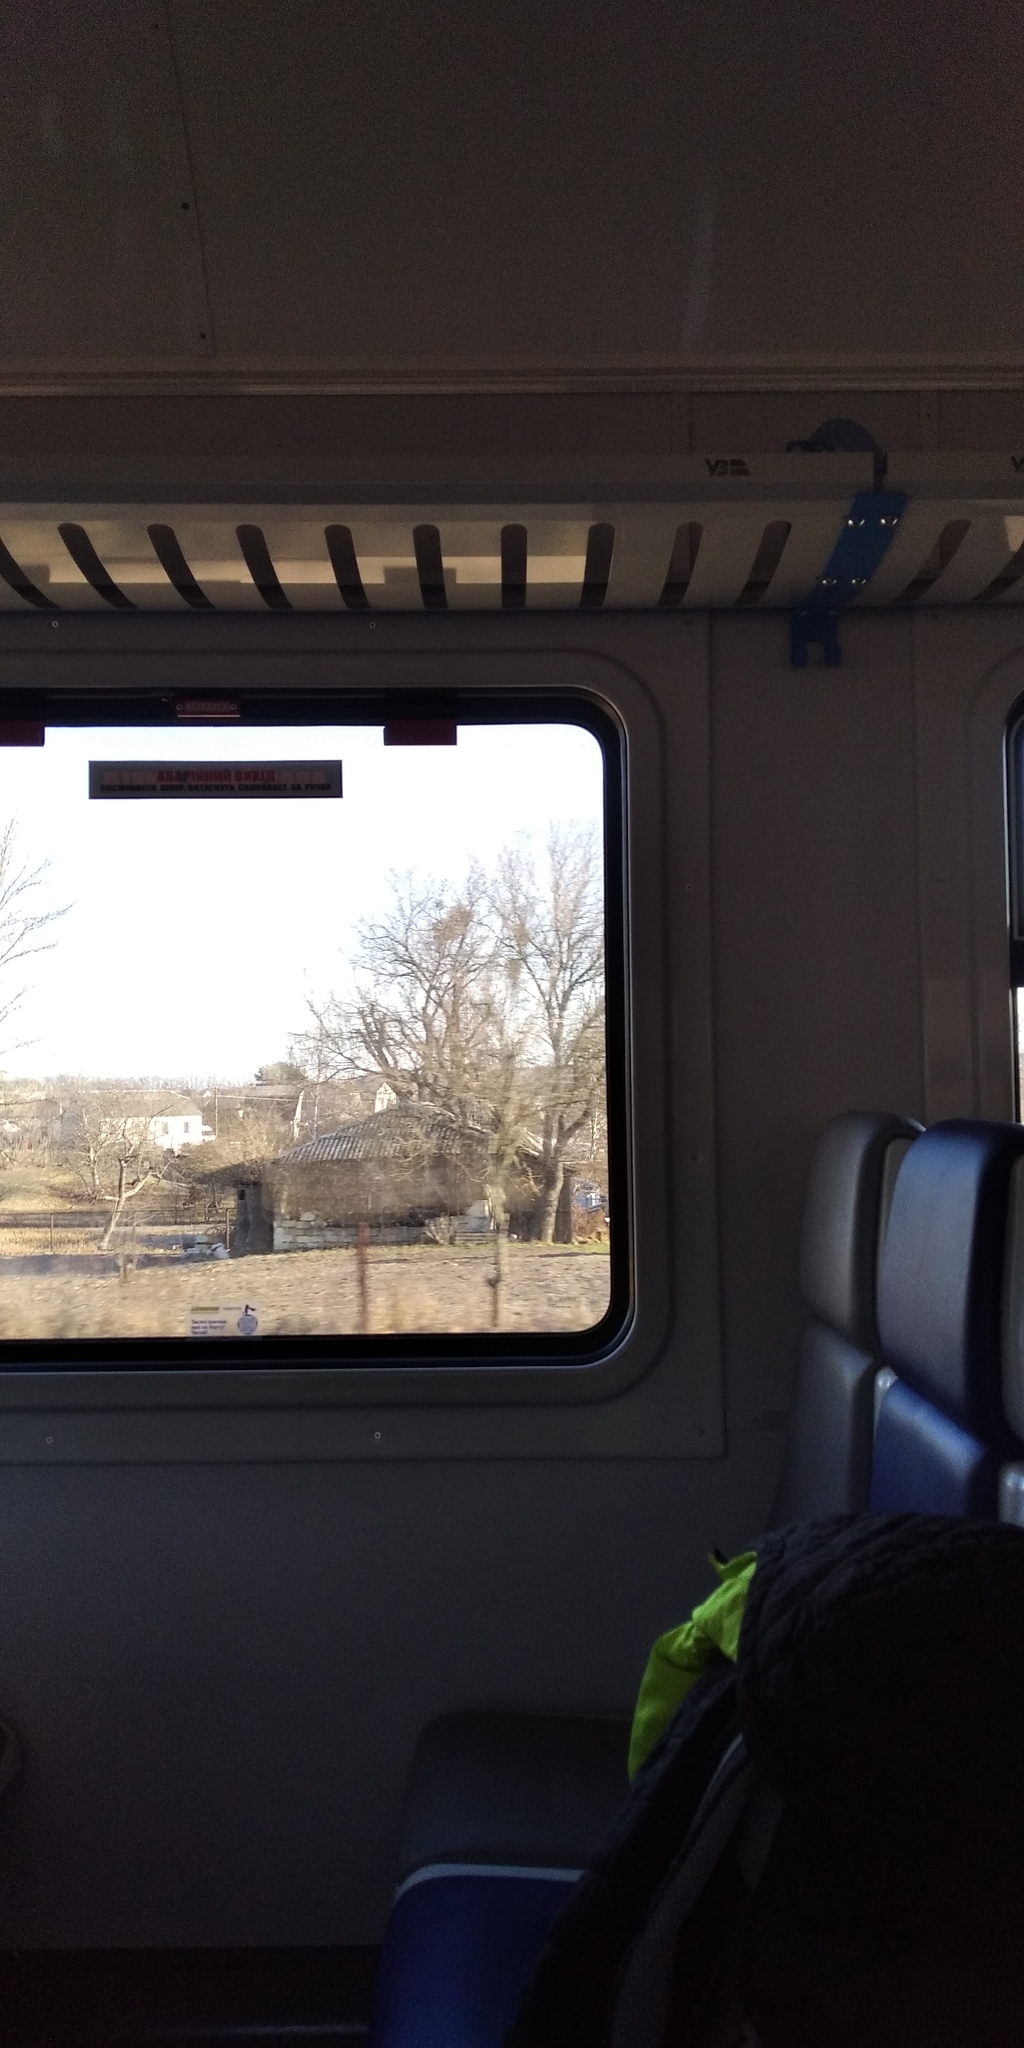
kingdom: Plantae
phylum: Tracheophyta
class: Magnoliopsida
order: Santalales
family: Viscaceae
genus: Viscum
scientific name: Viscum album
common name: Mistletoe
